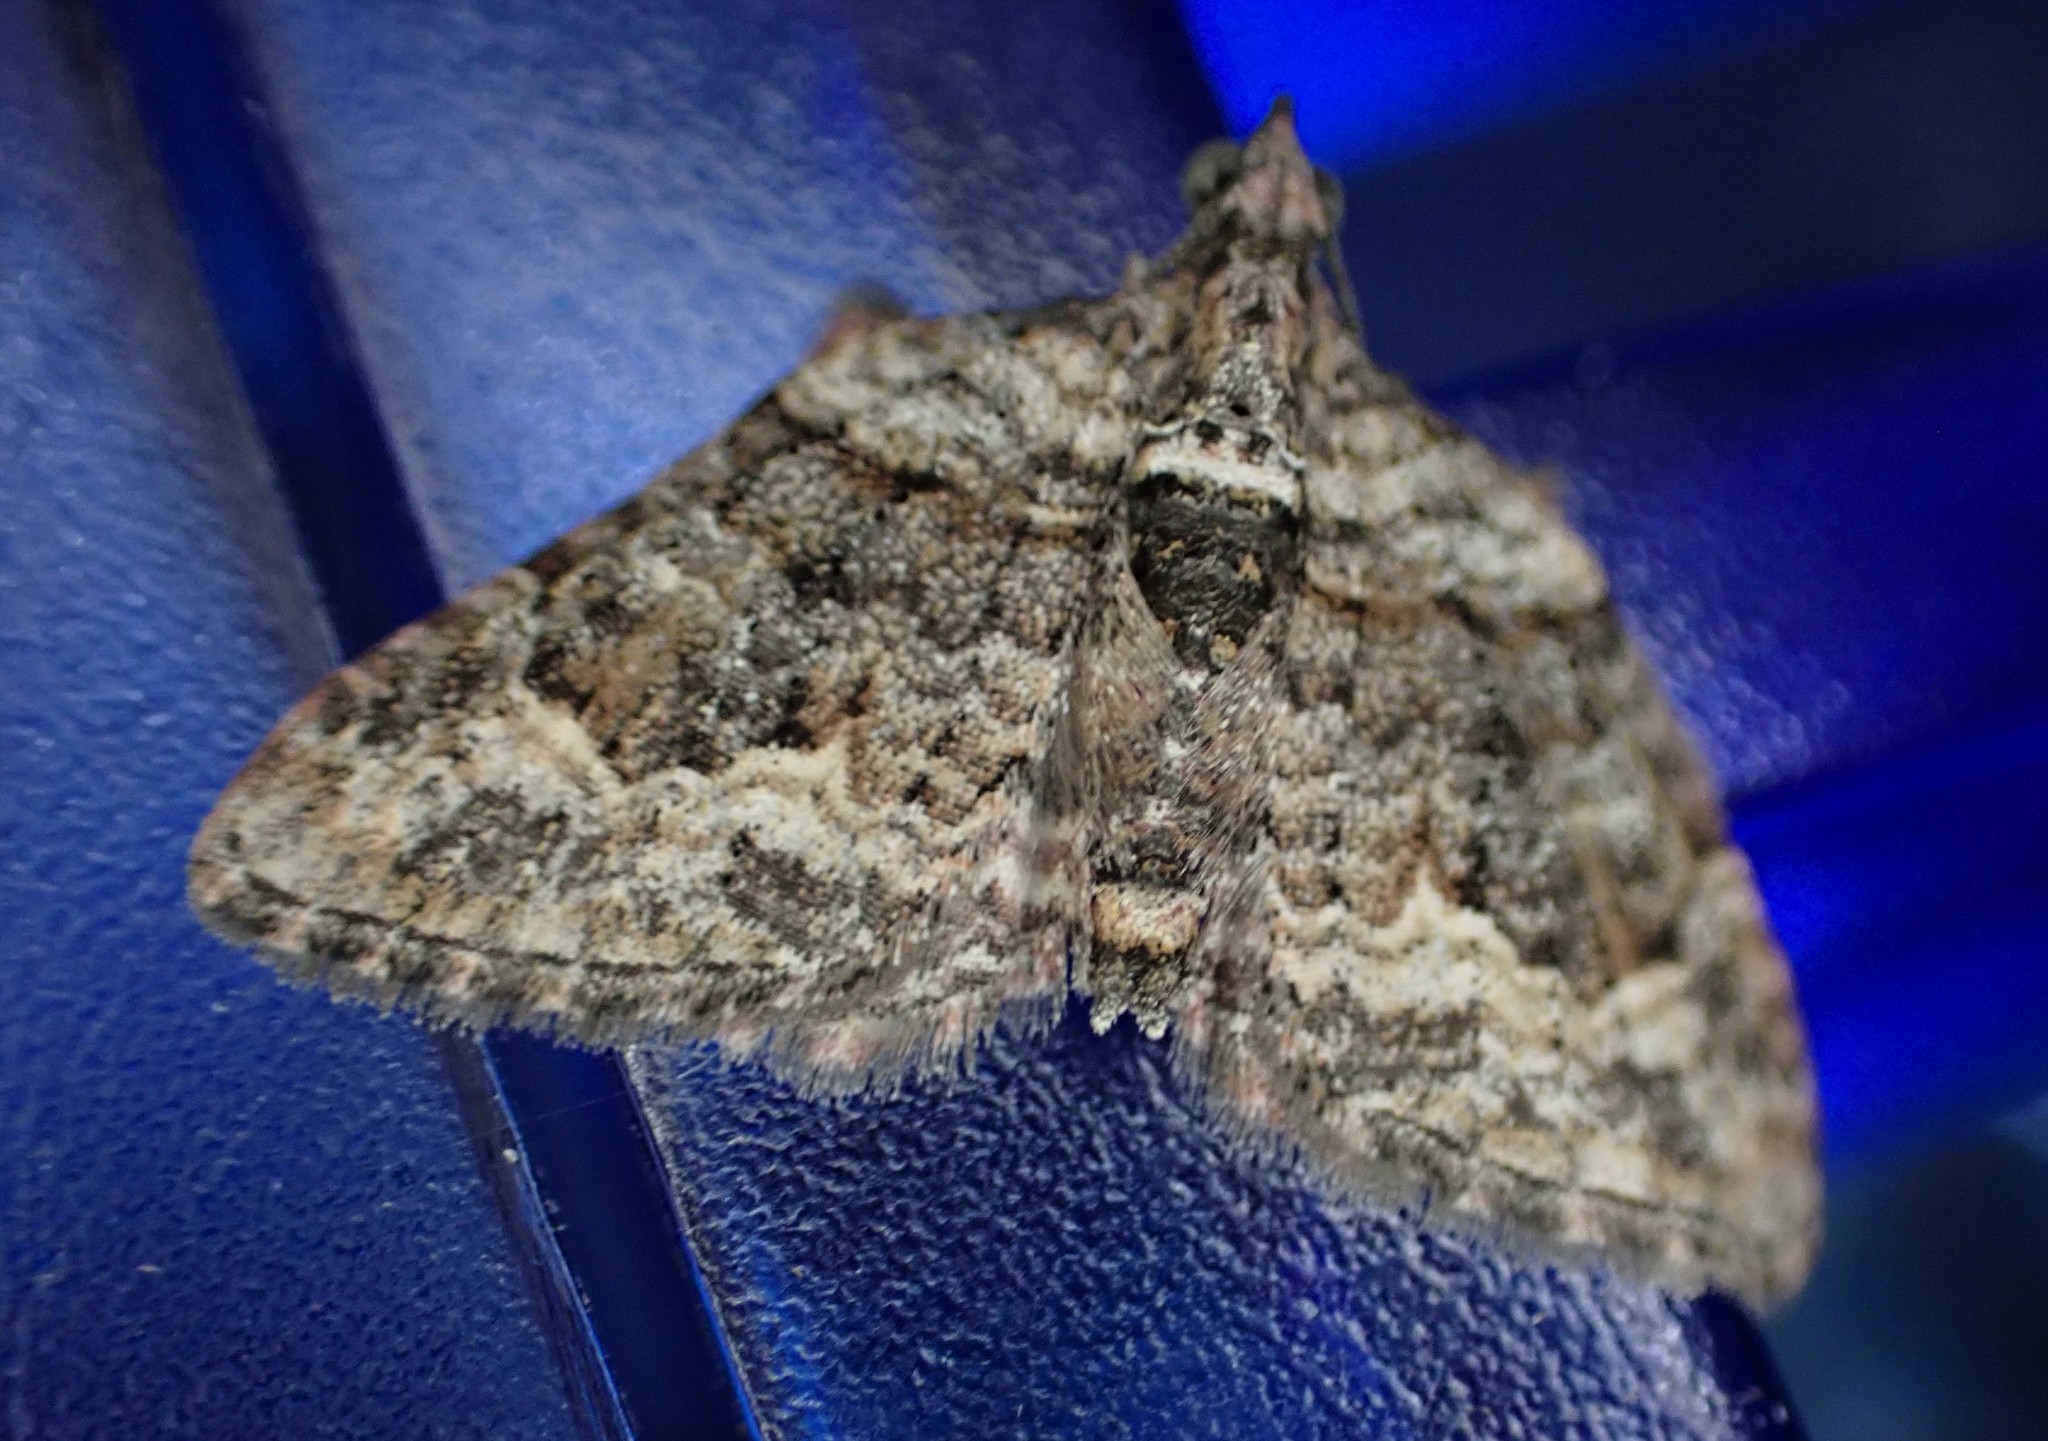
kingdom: Animalia
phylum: Arthropoda
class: Insecta
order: Lepidoptera
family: Geometridae
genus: Phrissogonus
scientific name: Phrissogonus laticostata
